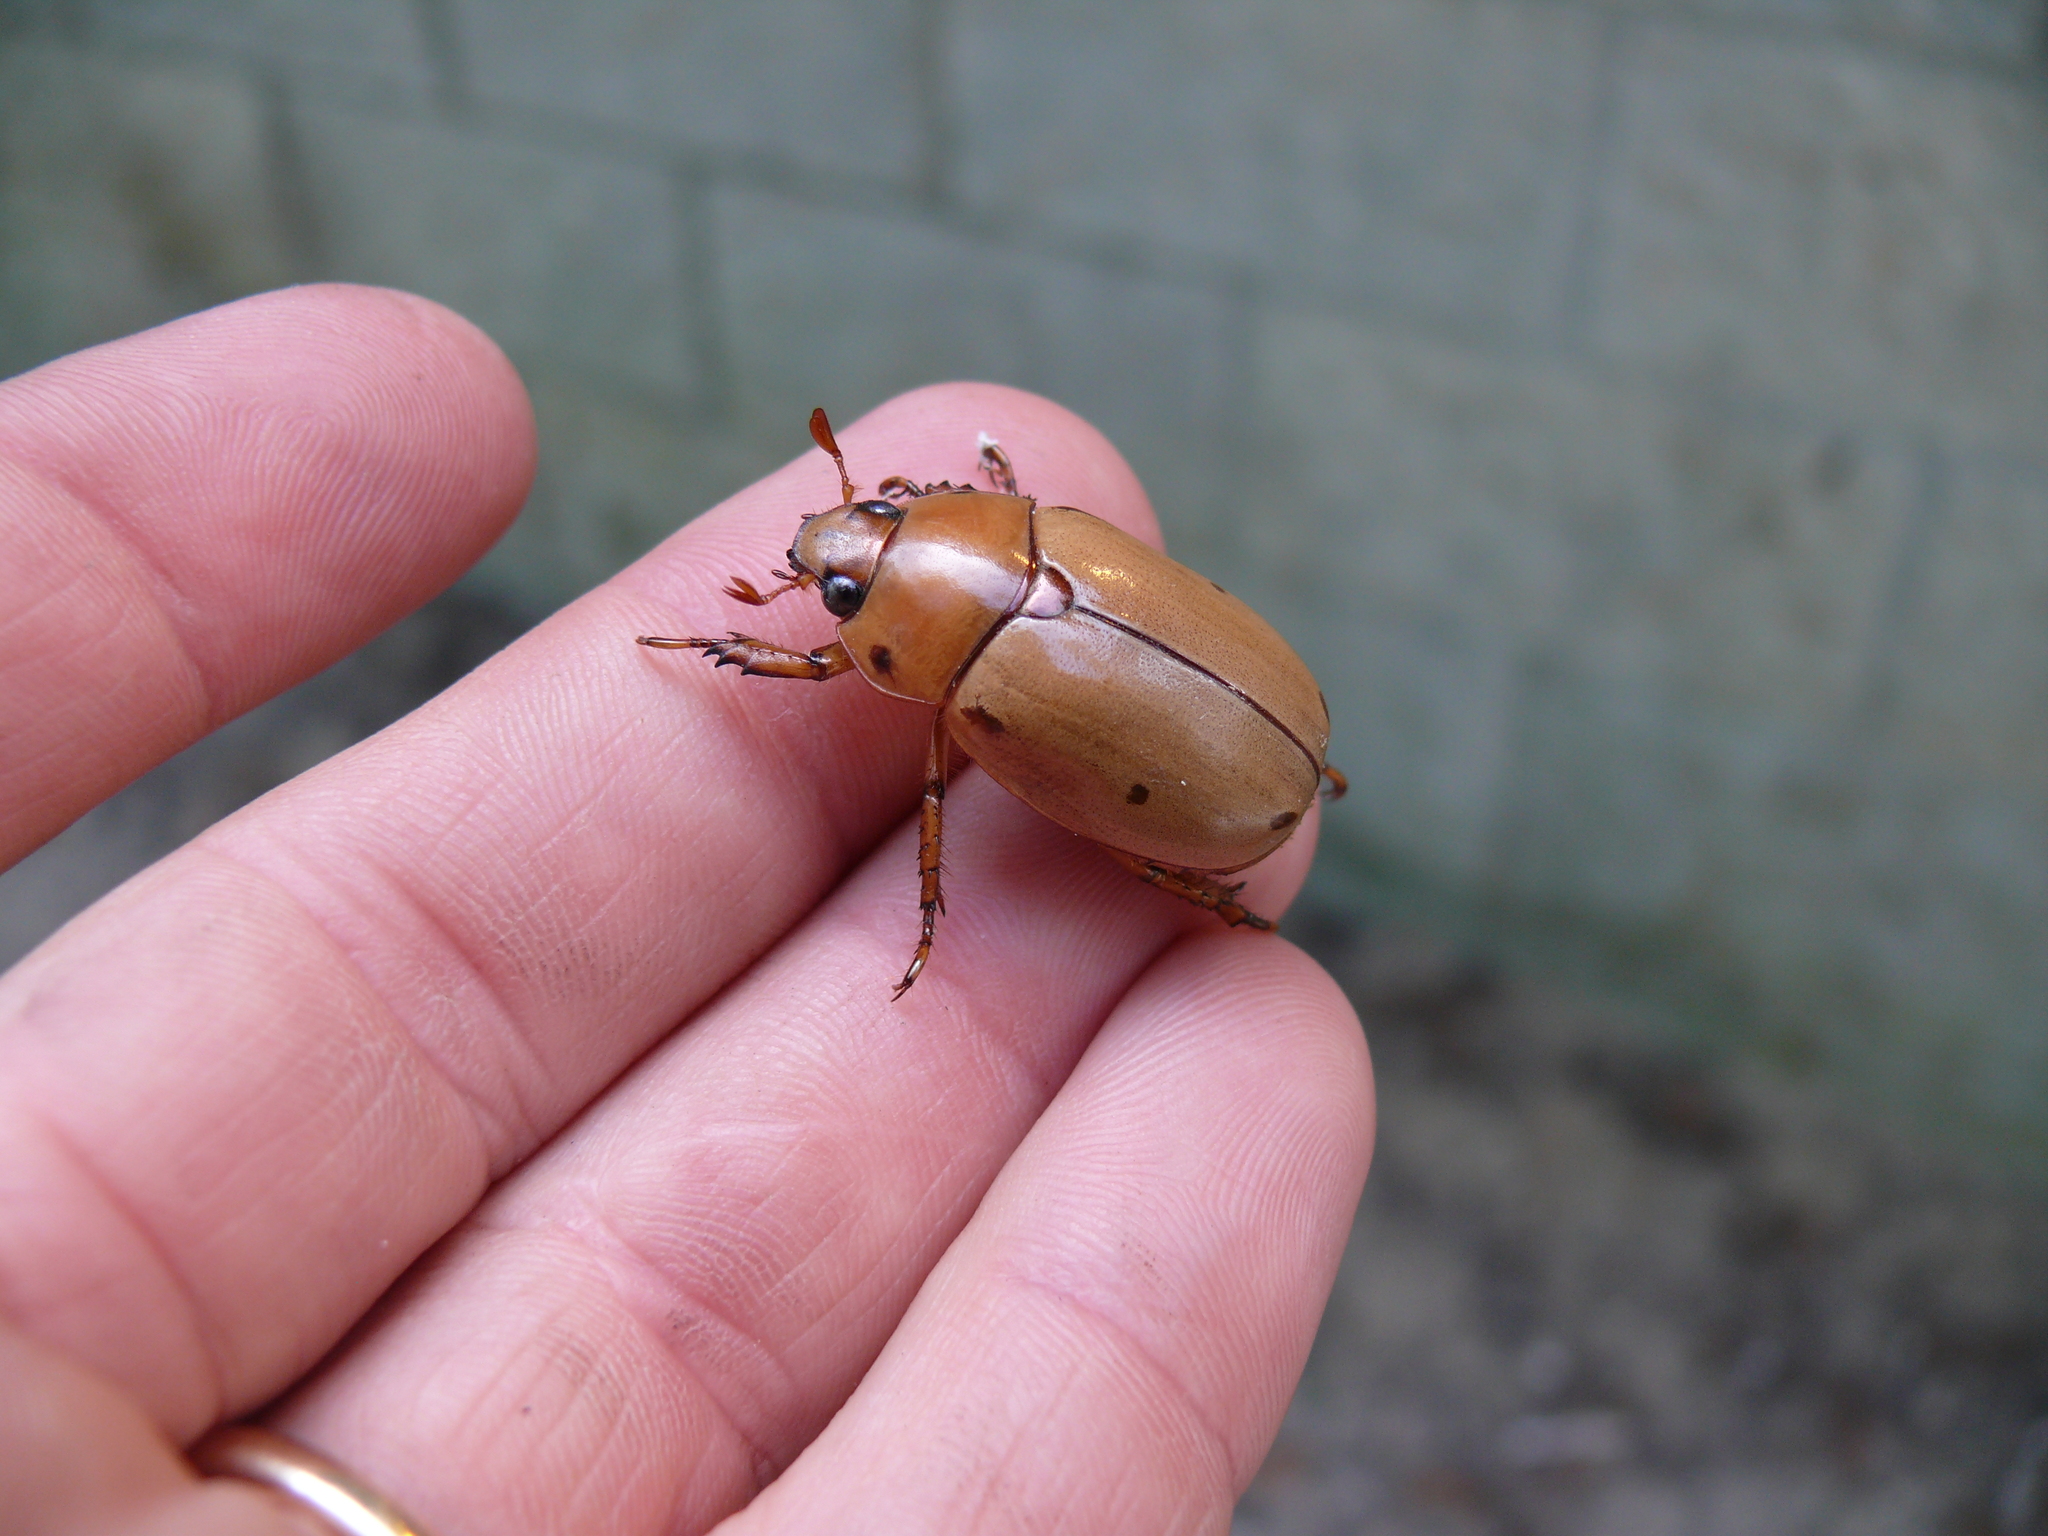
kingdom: Animalia
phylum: Arthropoda
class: Insecta
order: Coleoptera
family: Scarabaeidae
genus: Pelidnota
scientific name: Pelidnota punctata
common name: Grapevine beetle
